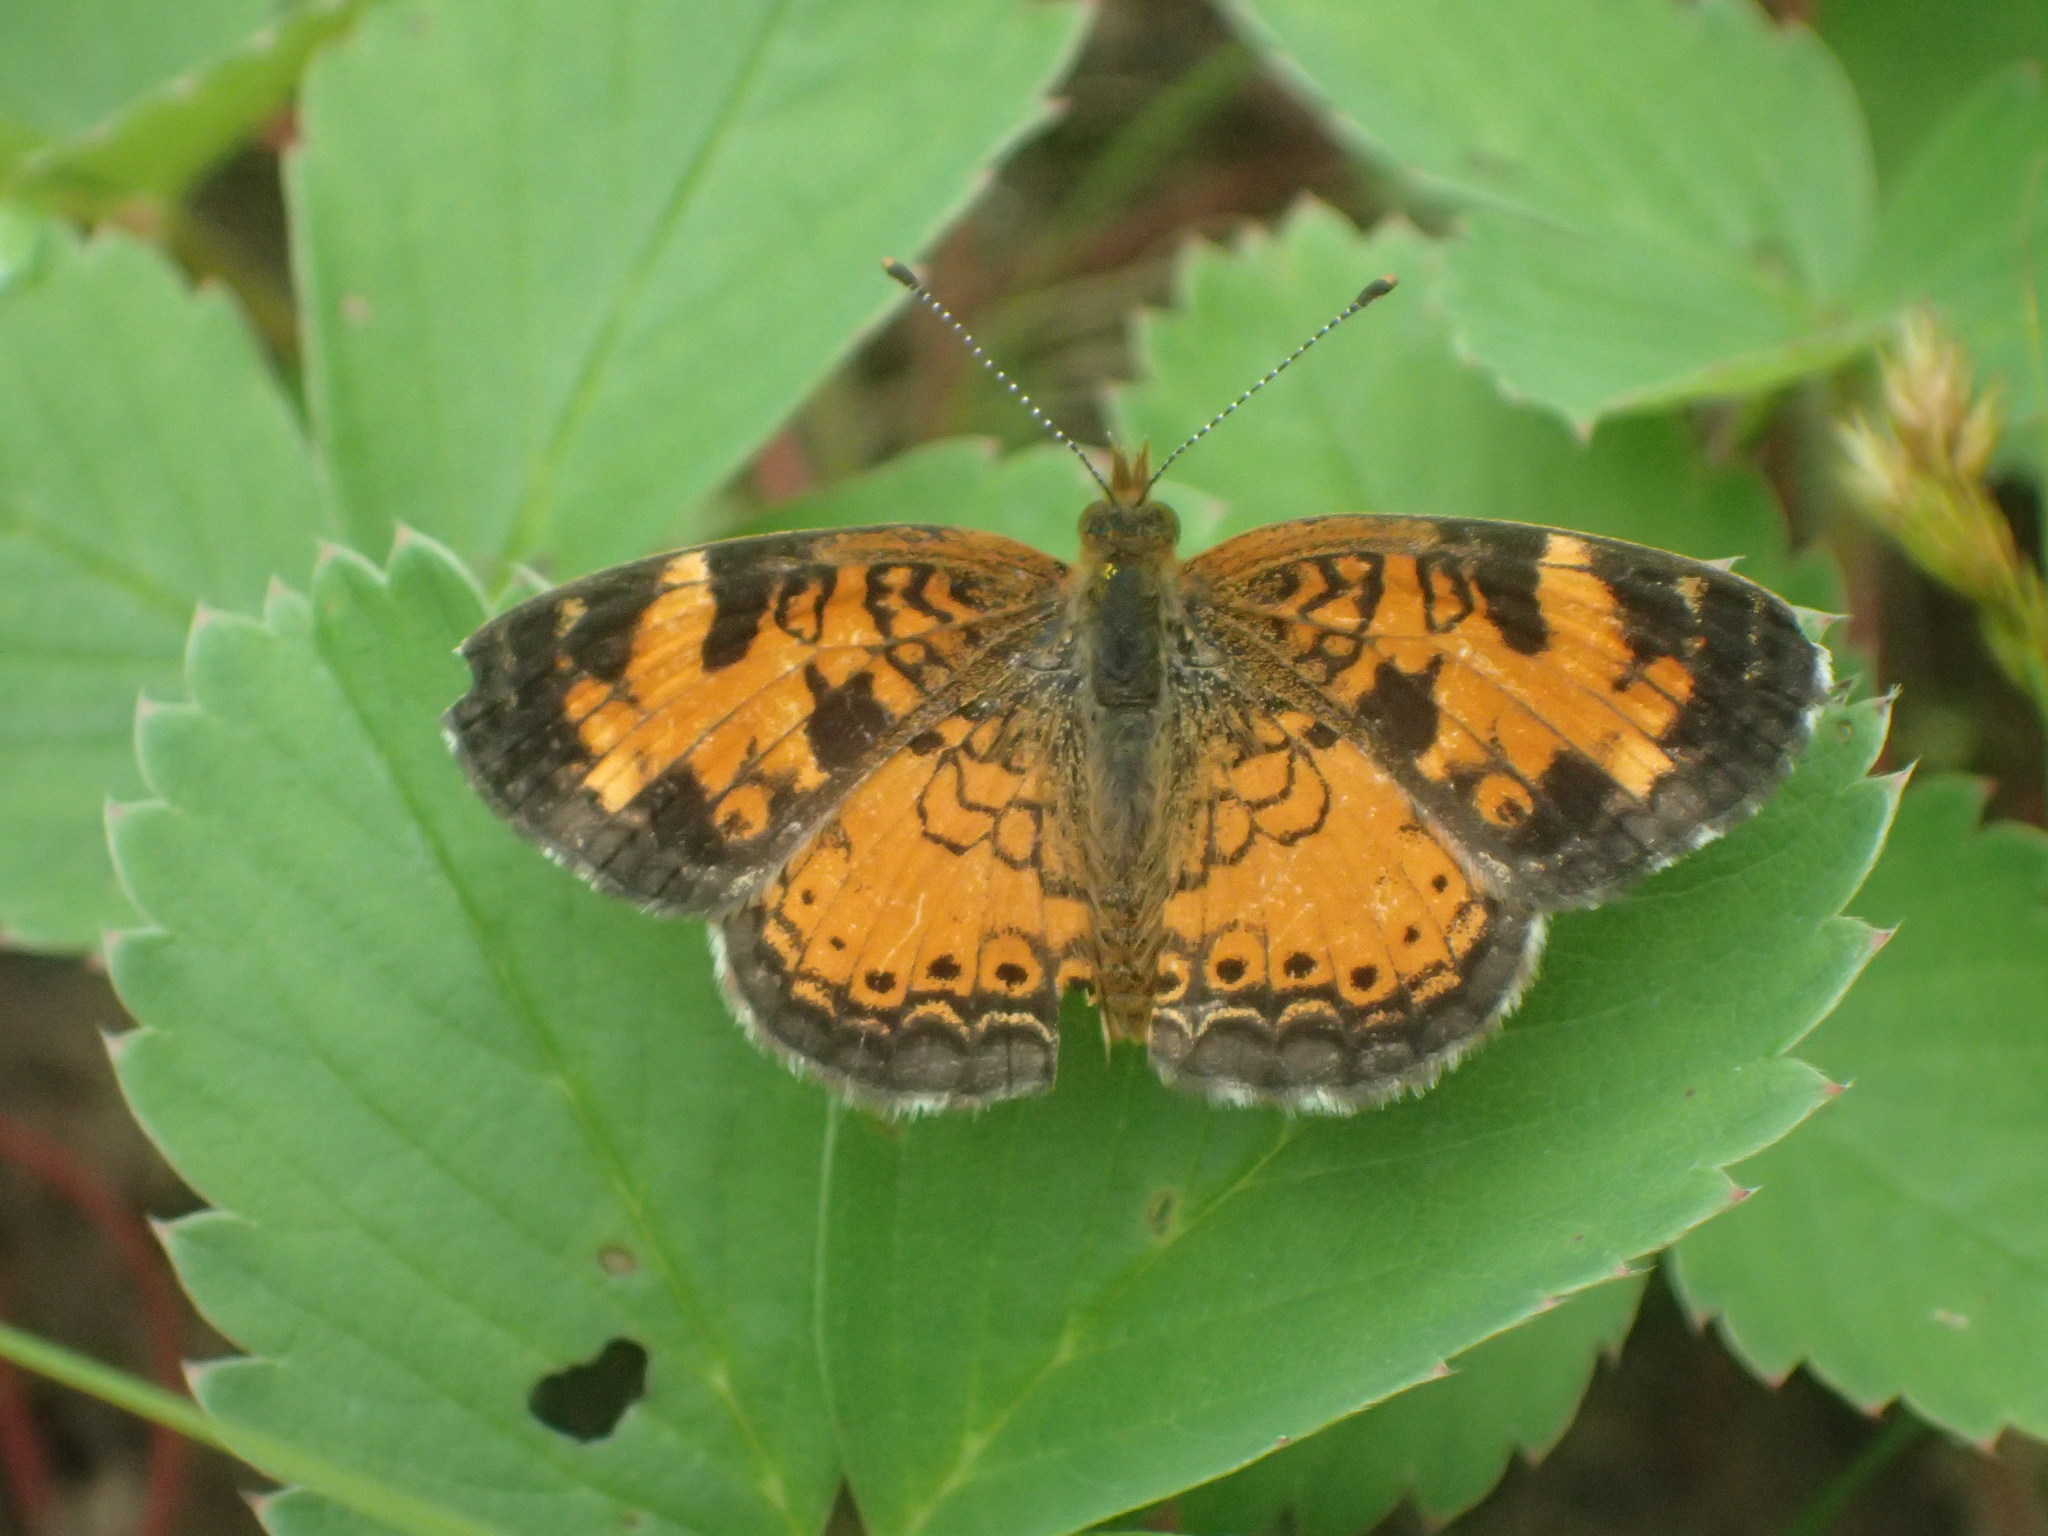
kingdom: Animalia
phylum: Arthropoda
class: Insecta
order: Lepidoptera
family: Nymphalidae
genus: Phyciodes
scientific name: Phyciodes tharos
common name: Pearl crescent
